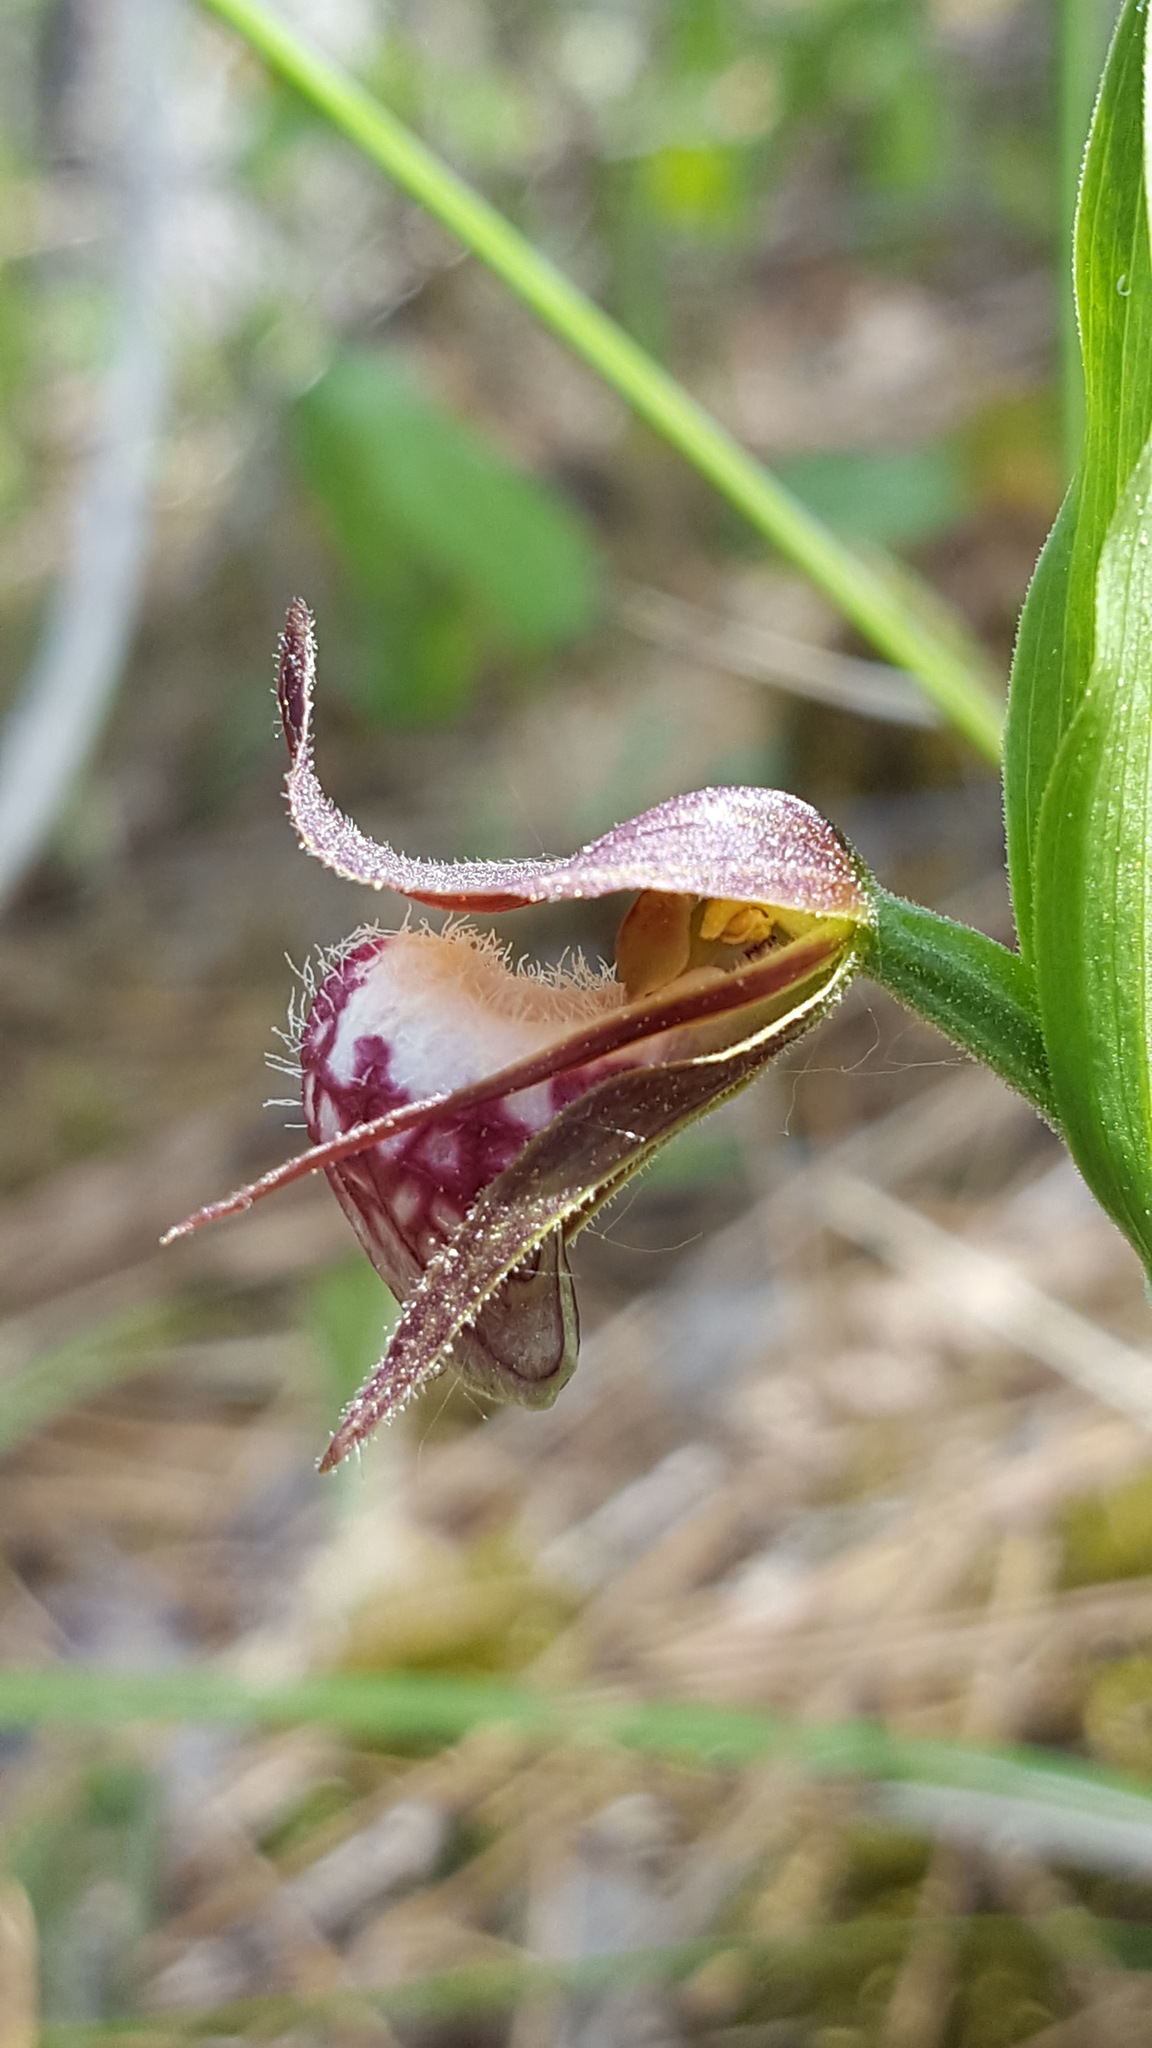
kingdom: Plantae
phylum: Tracheophyta
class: Liliopsida
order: Asparagales
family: Orchidaceae
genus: Cypripedium
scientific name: Cypripedium arietinum
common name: Ram's-head
